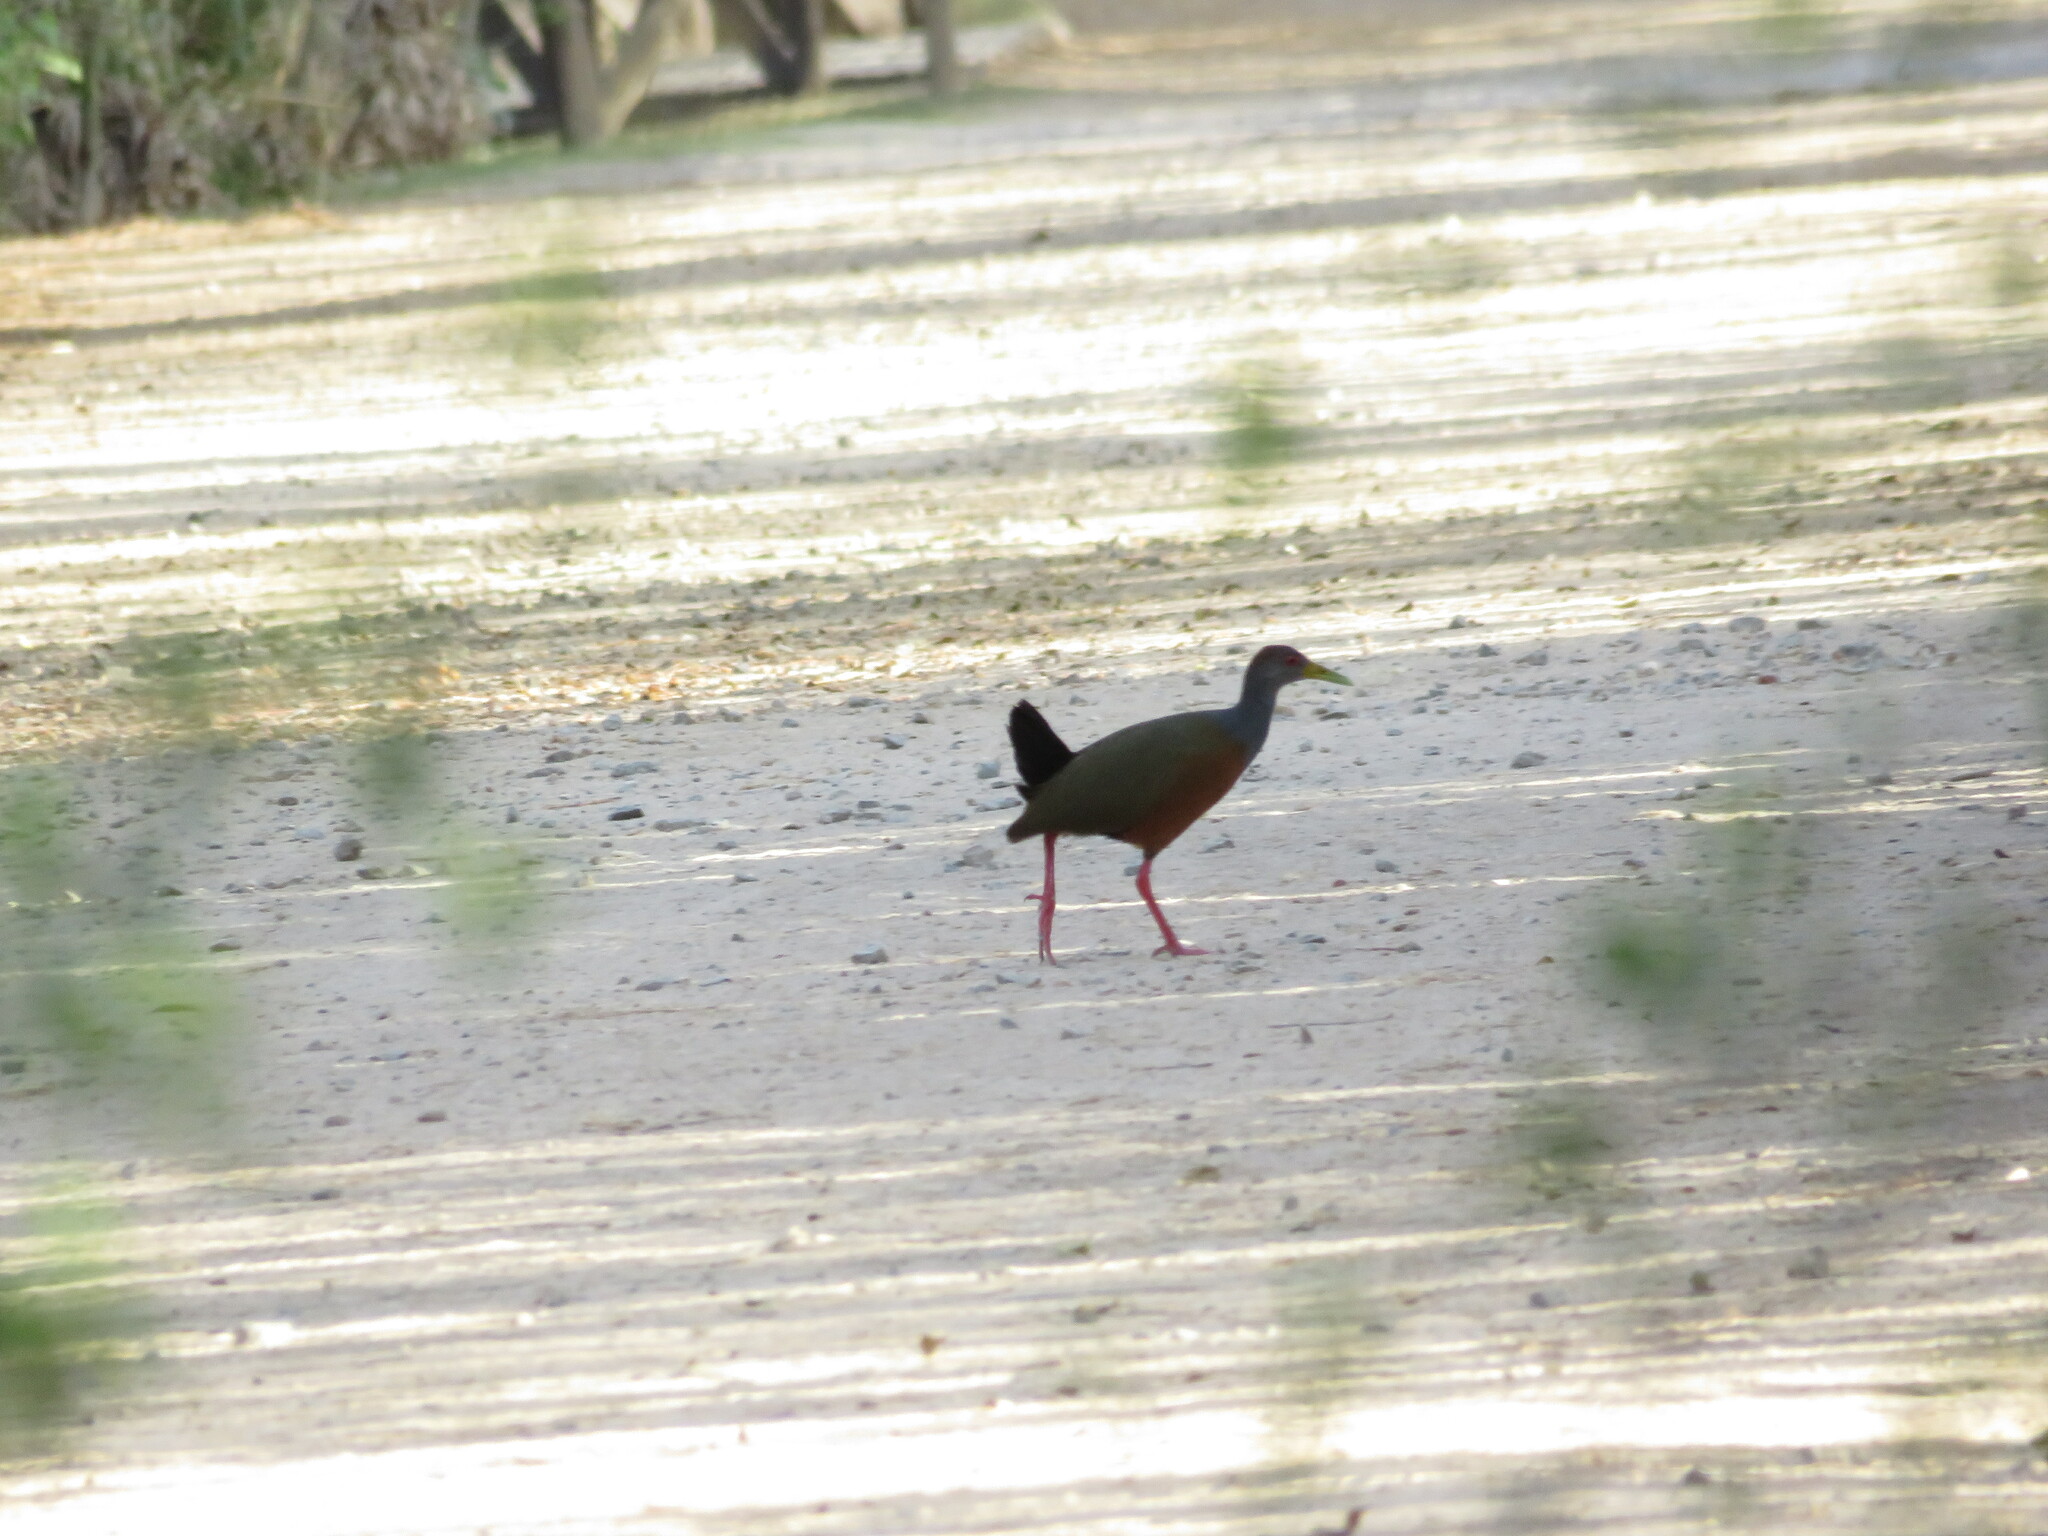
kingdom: Animalia
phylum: Chordata
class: Aves
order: Gruiformes
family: Rallidae
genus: Aramides
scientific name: Aramides cajanea
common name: Gray-necked wood-rail
